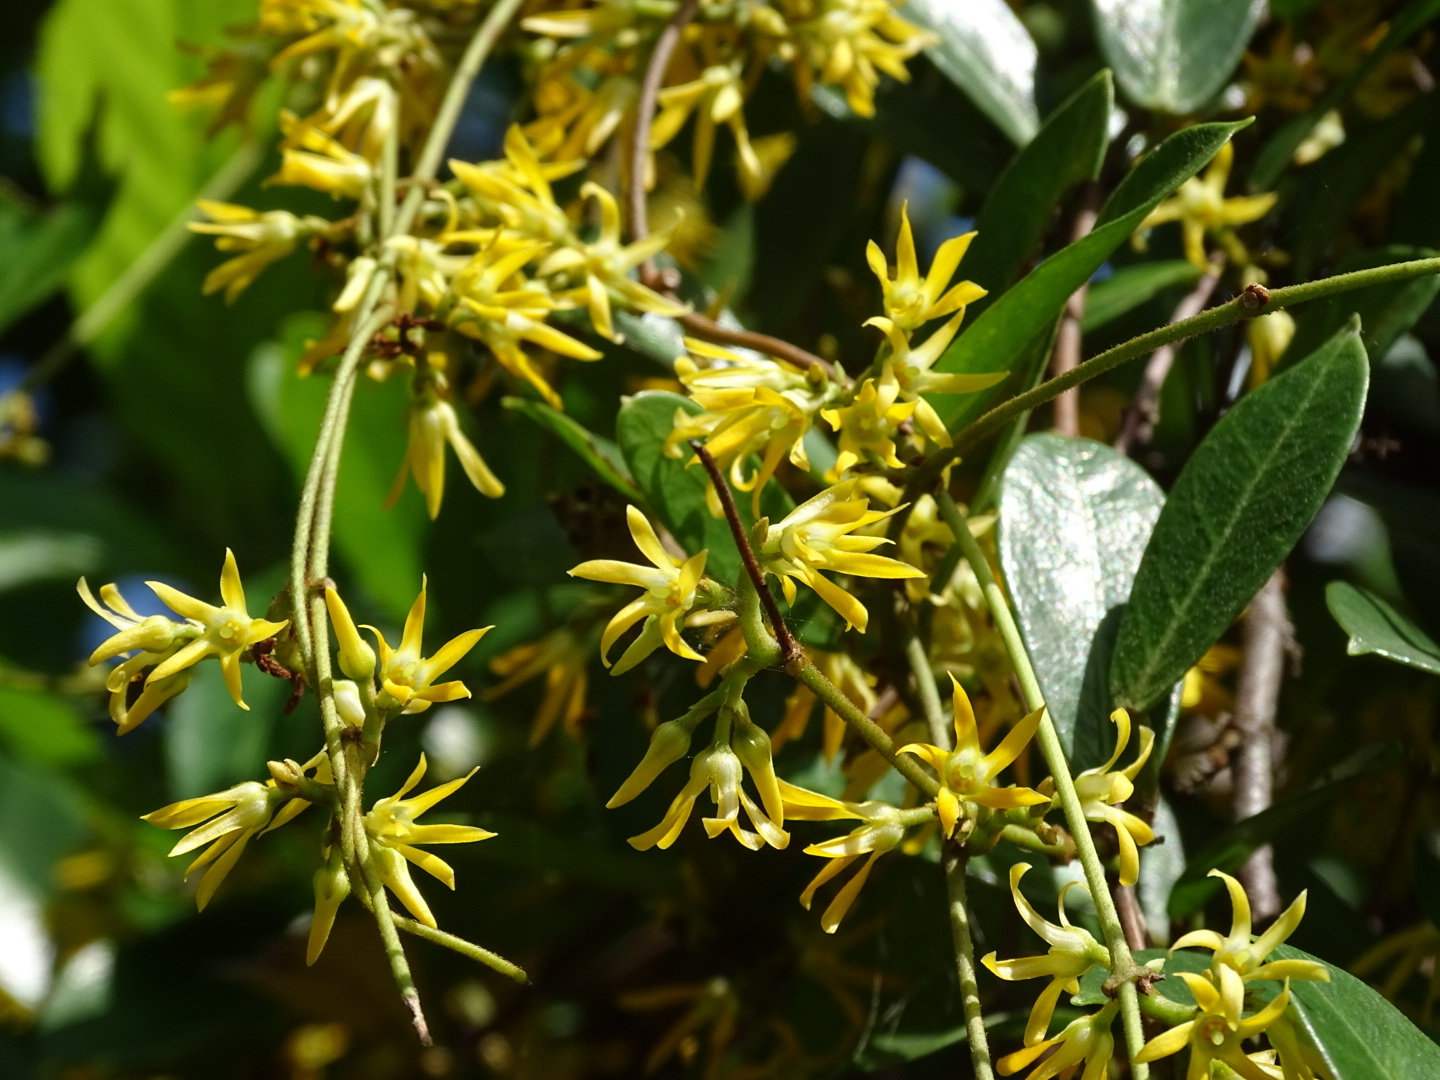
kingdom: Plantae
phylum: Tracheophyta
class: Magnoliopsida
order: Gentianales
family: Apocynaceae
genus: Toxocarpus
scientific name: Toxocarpus wightianus
